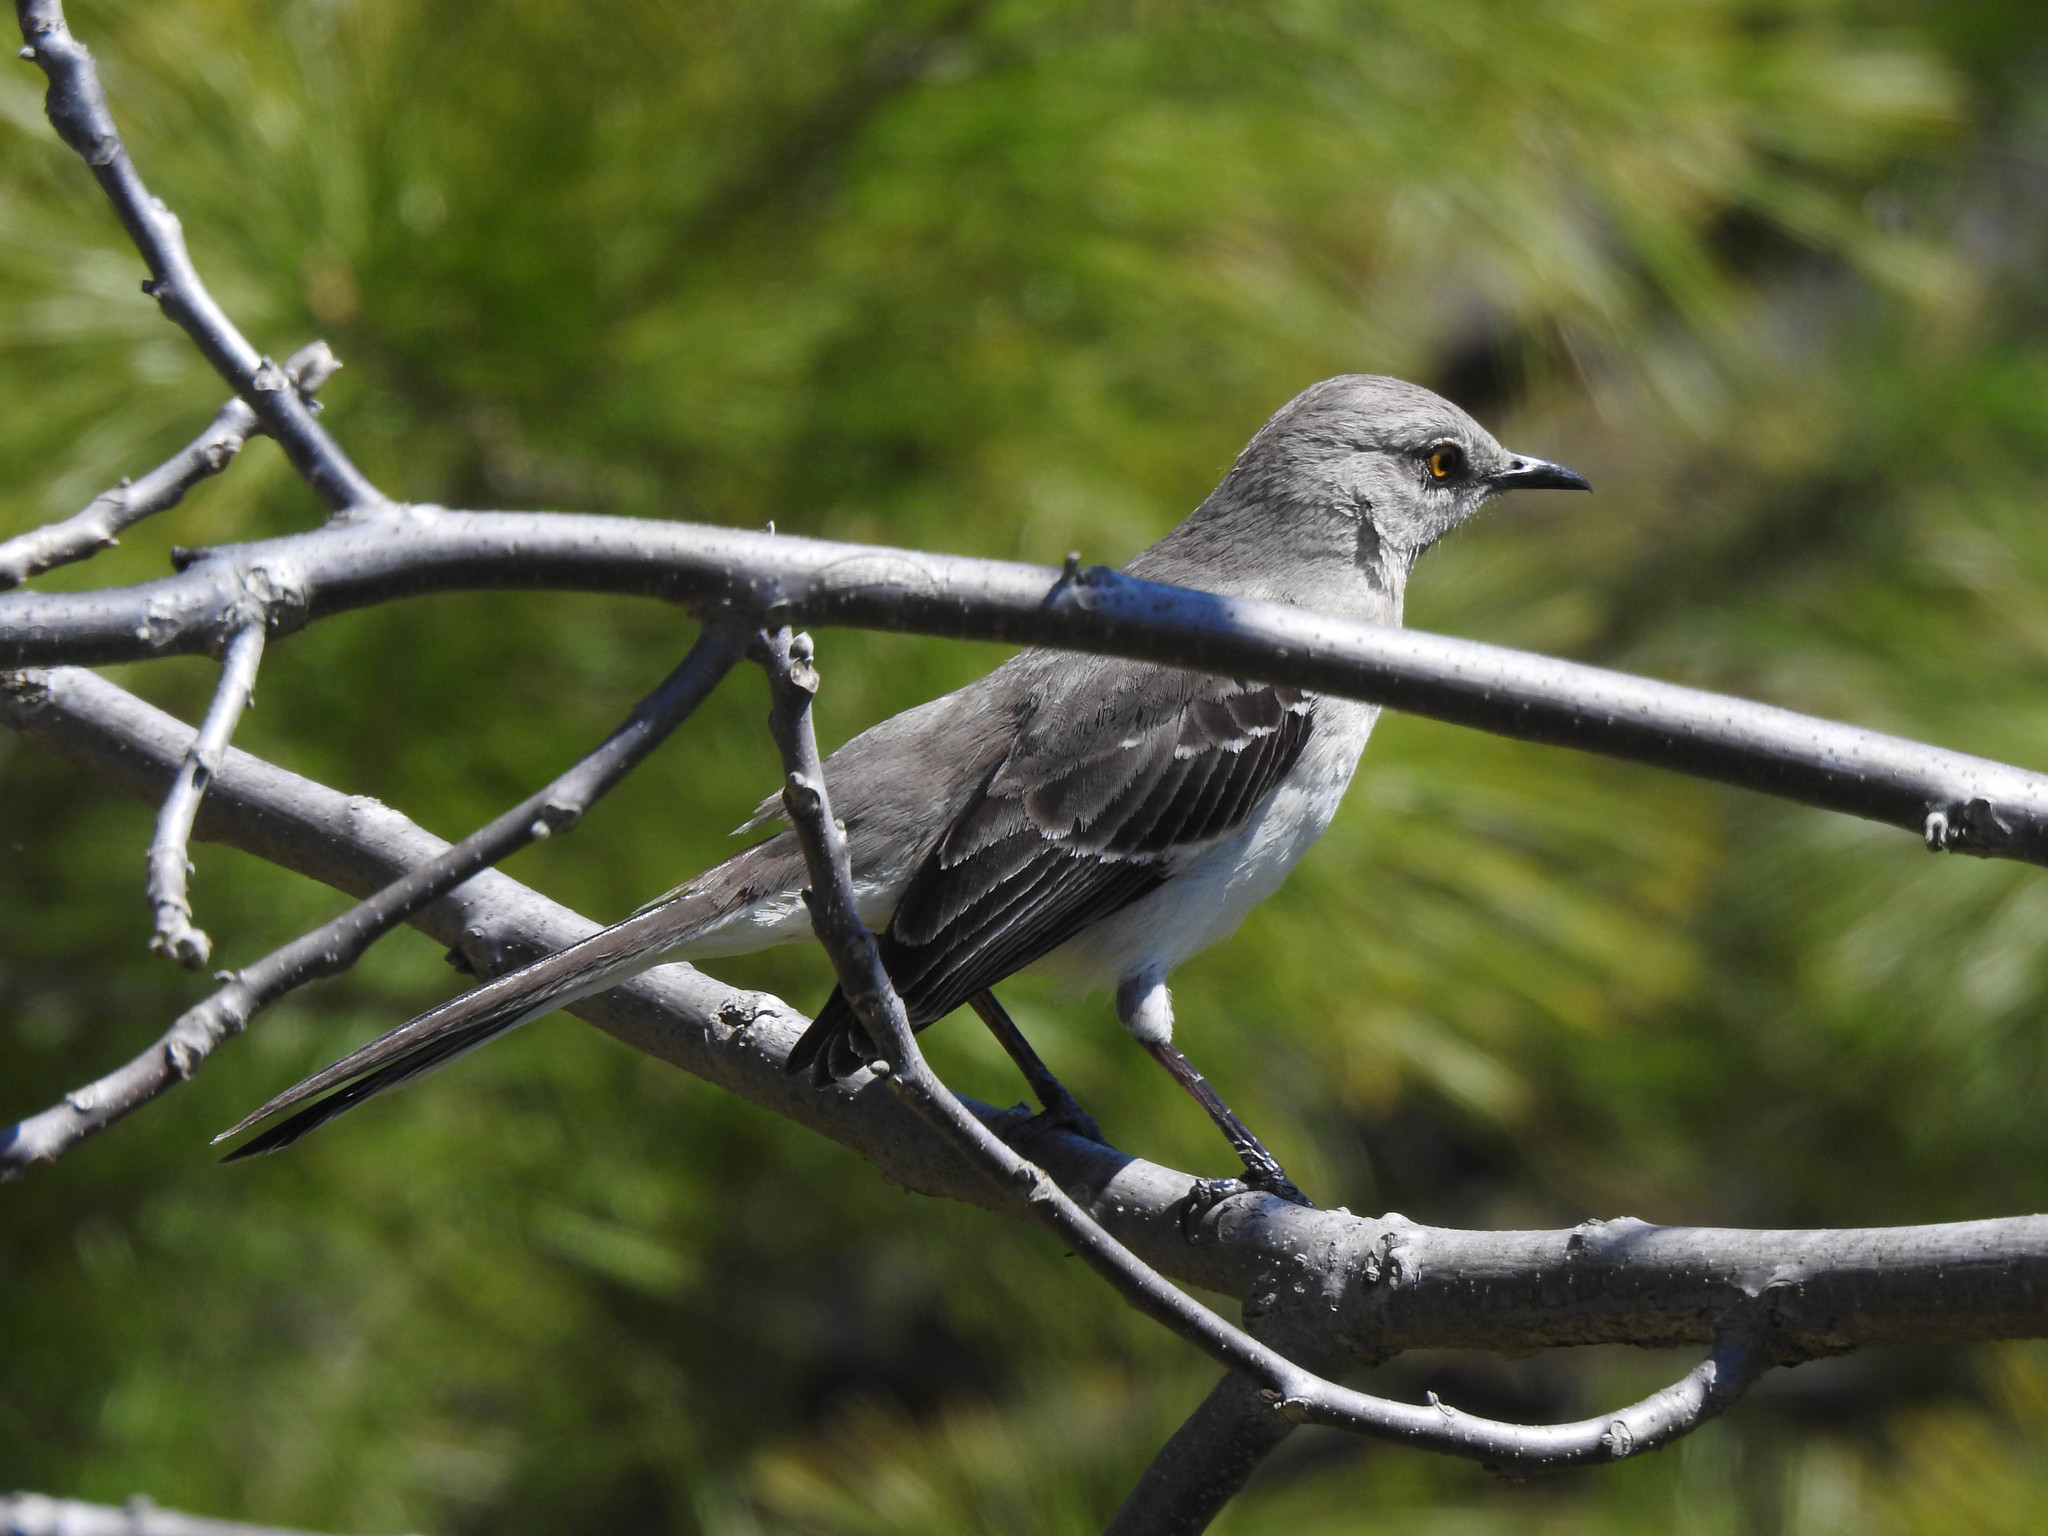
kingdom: Animalia
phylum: Chordata
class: Aves
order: Passeriformes
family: Mimidae
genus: Mimus
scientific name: Mimus polyglottos
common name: Northern mockingbird
